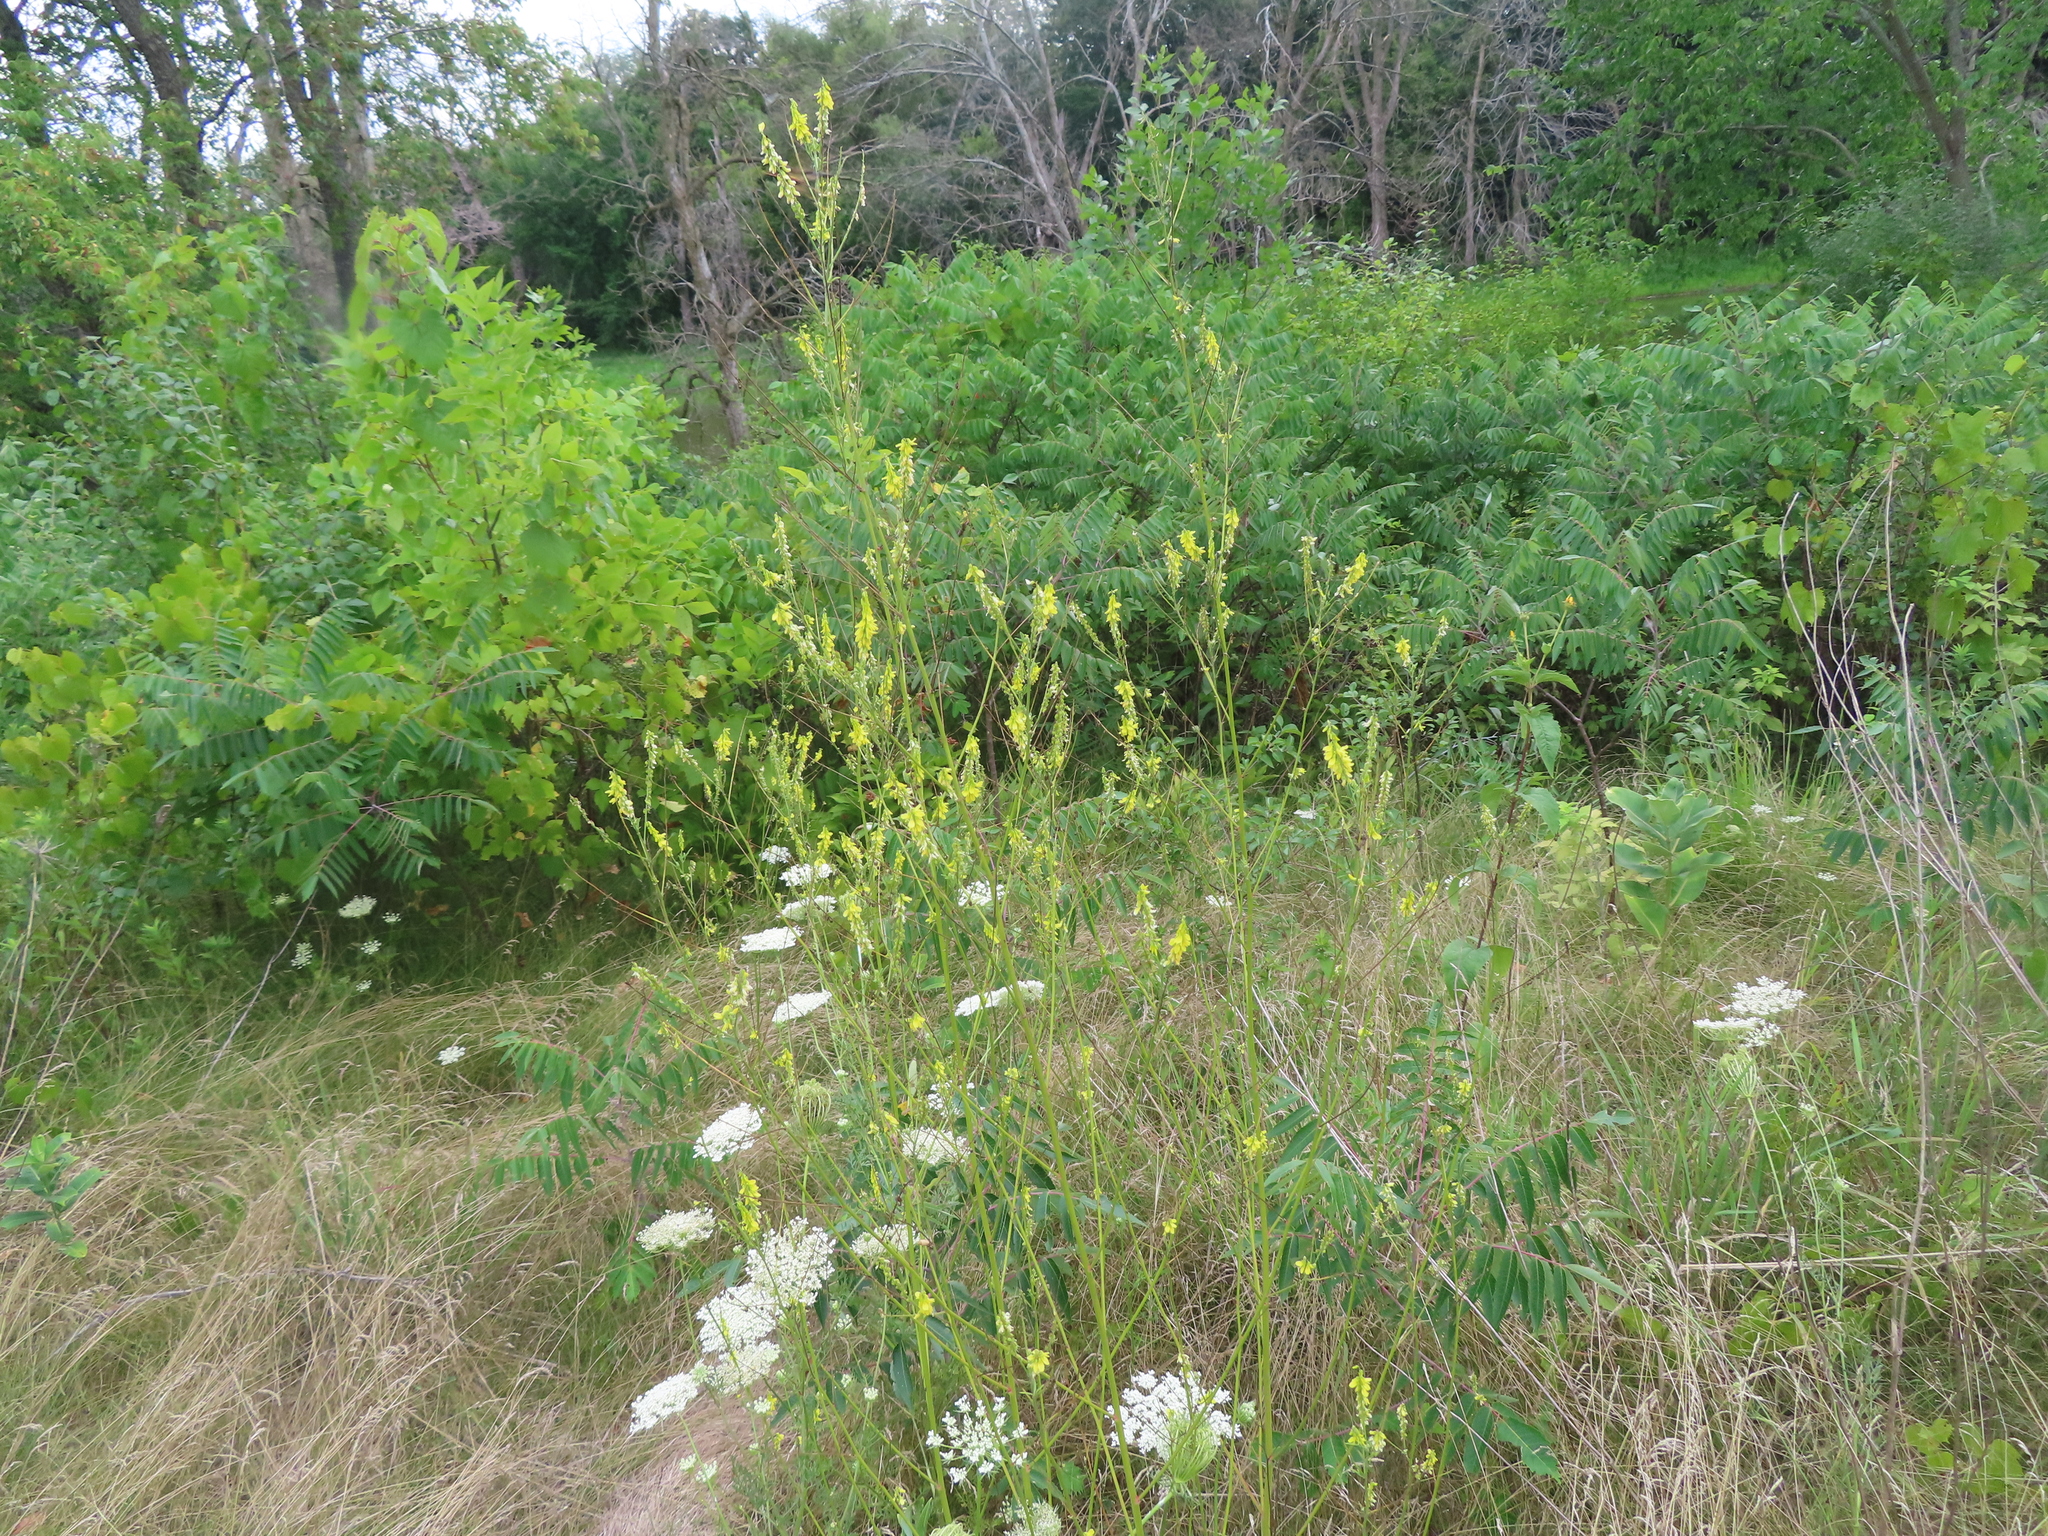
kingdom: Plantae
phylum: Tracheophyta
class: Magnoliopsida
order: Fabales
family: Fabaceae
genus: Melilotus
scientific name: Melilotus officinalis
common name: Sweetclover
